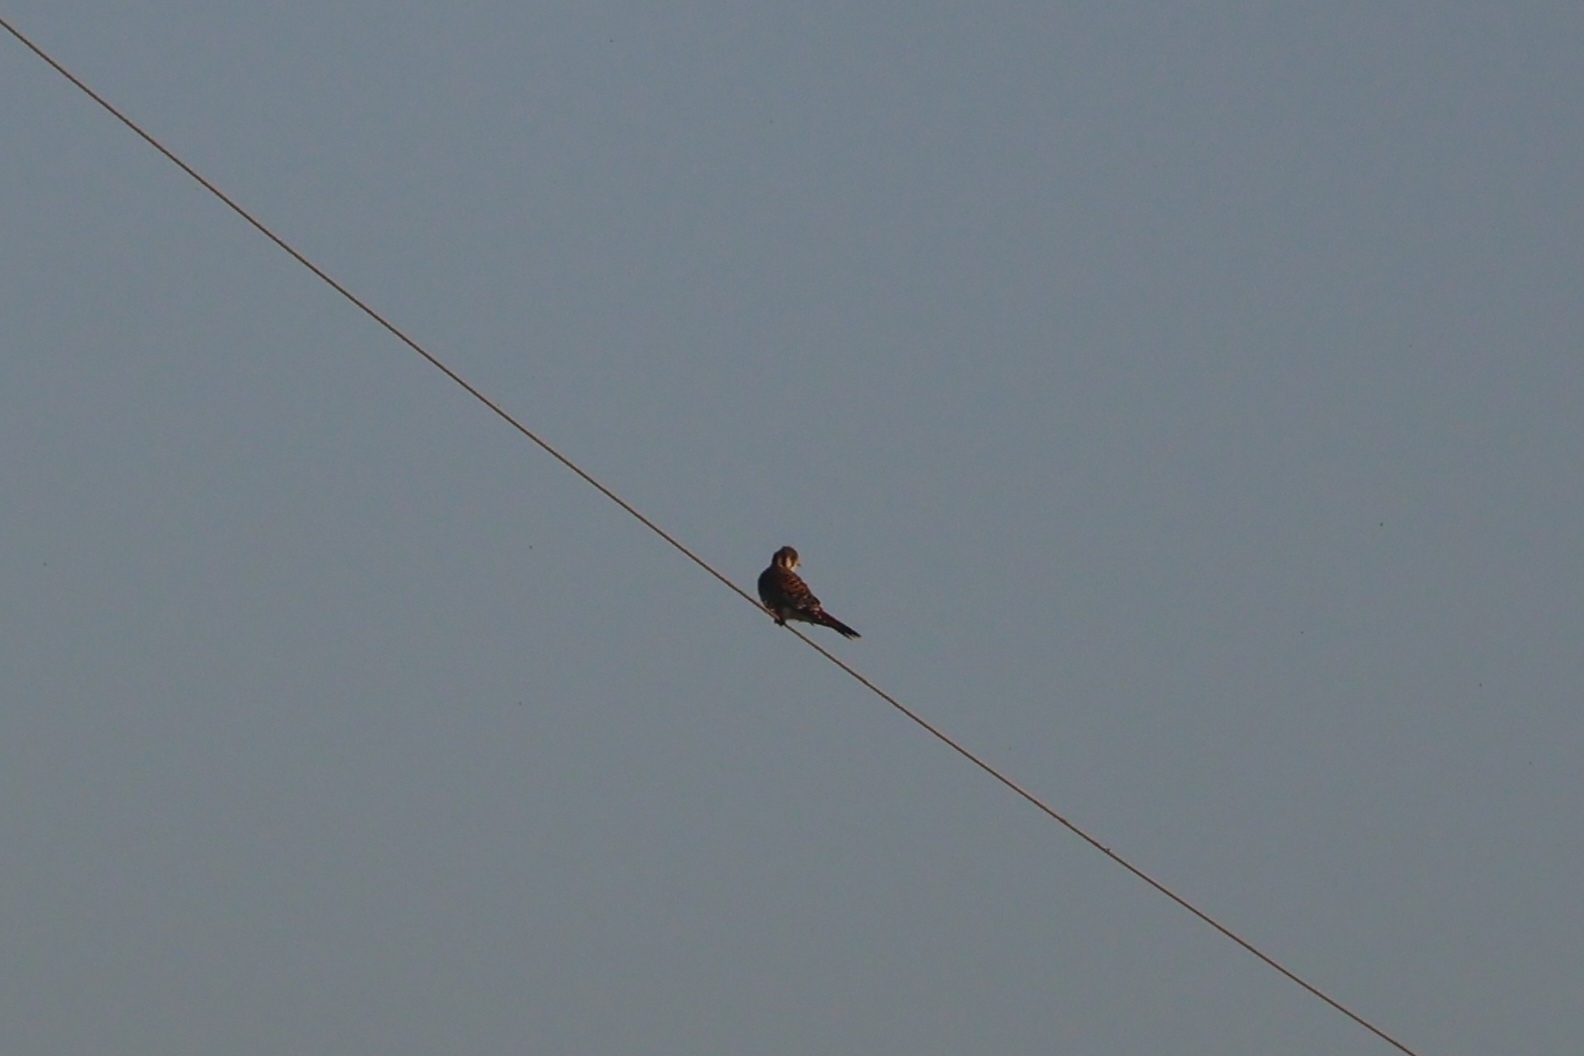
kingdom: Animalia
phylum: Chordata
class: Aves
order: Falconiformes
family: Falconidae
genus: Falco
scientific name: Falco sparverius
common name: American kestrel
